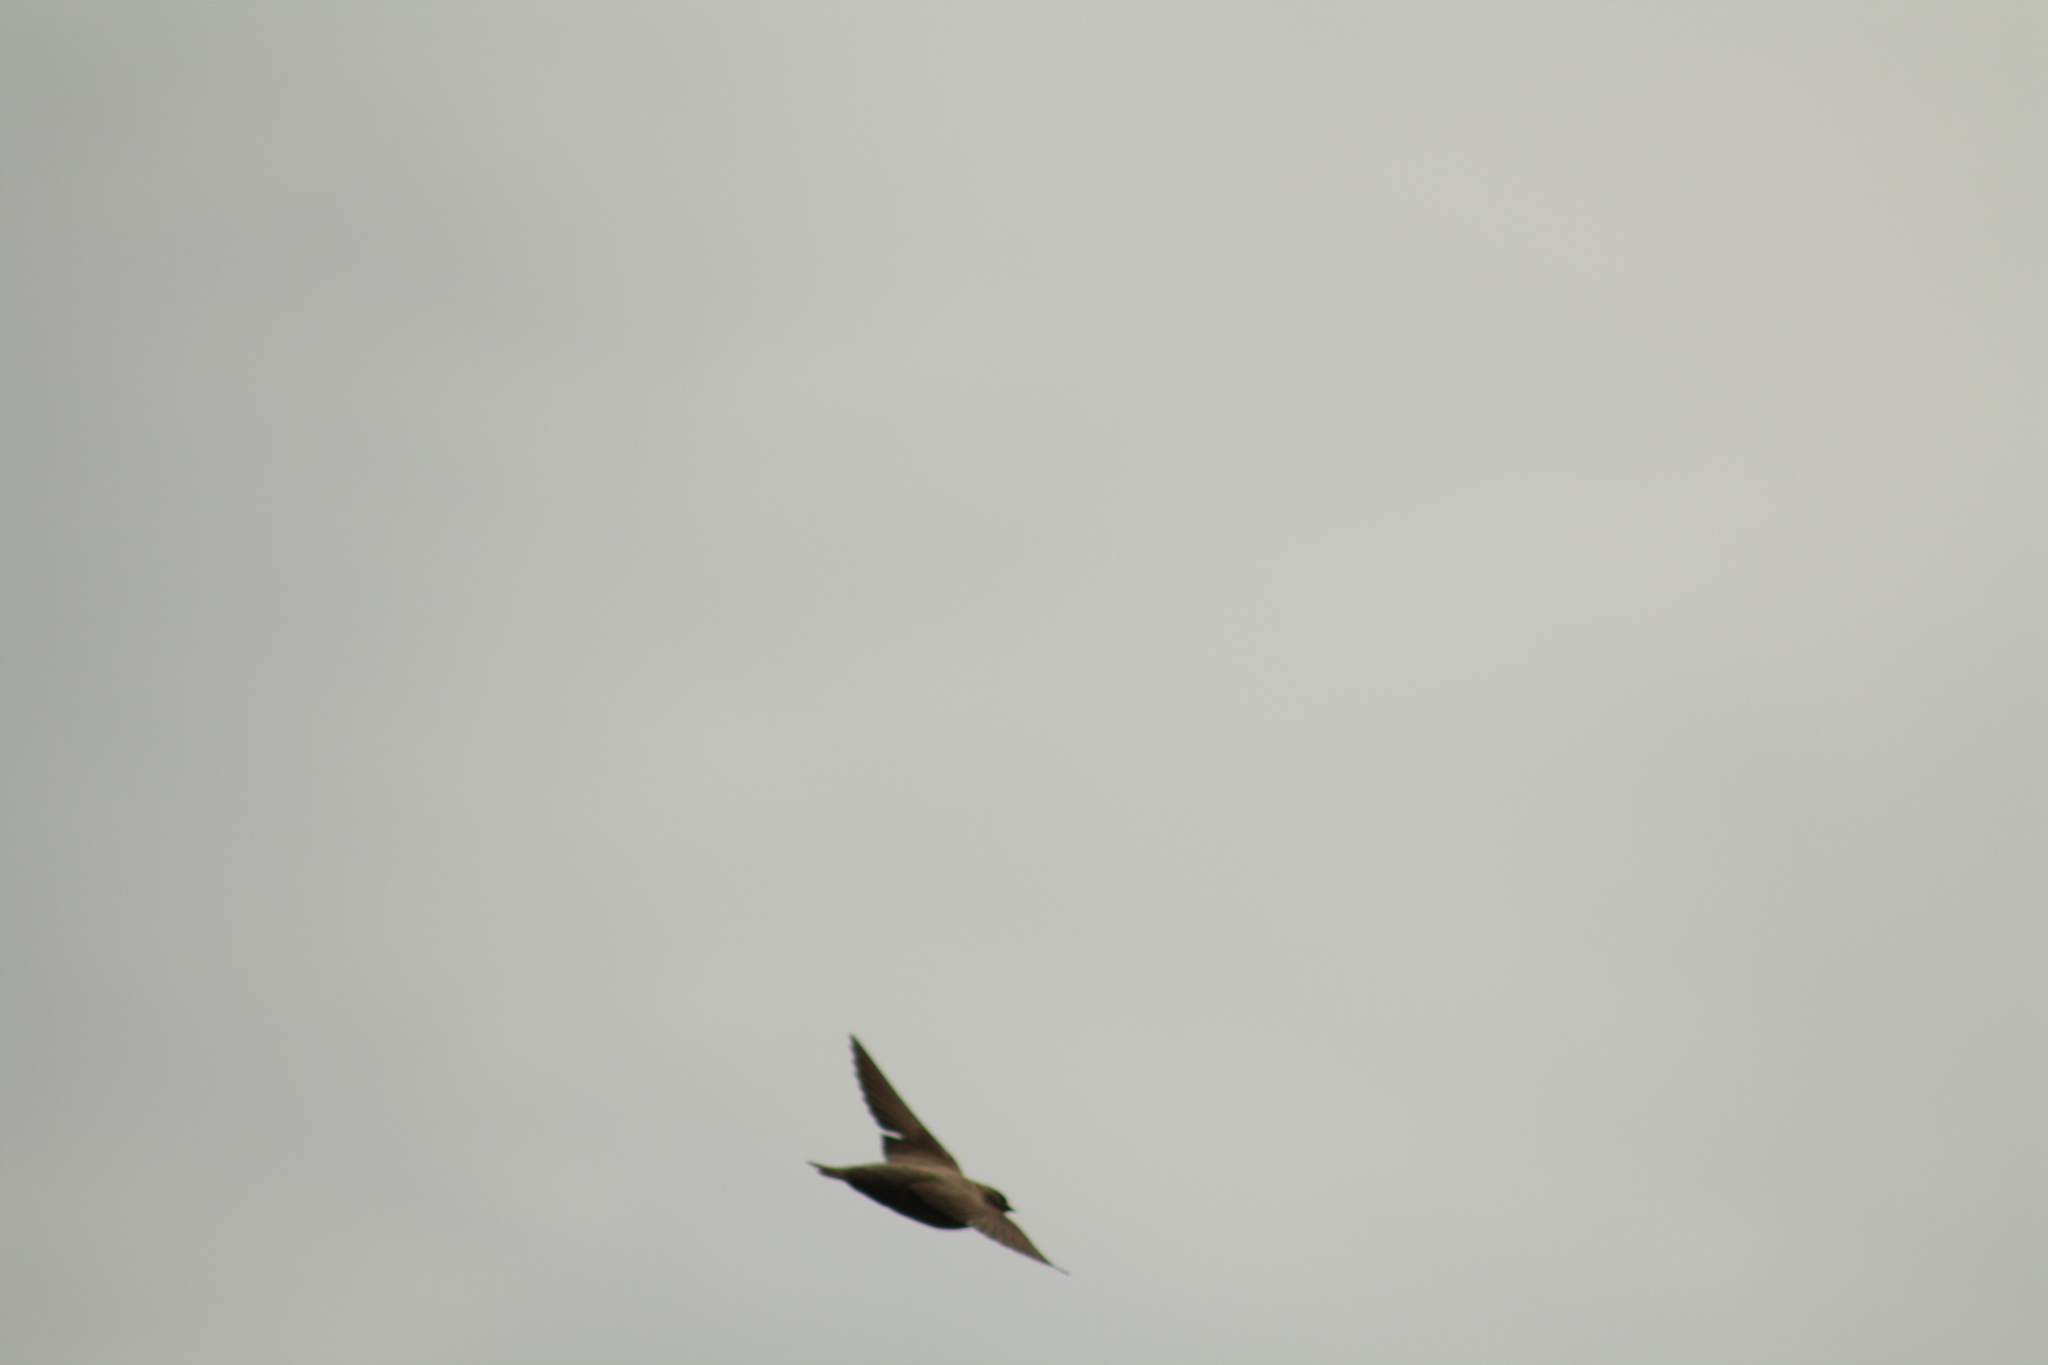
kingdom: Animalia
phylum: Chordata
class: Aves
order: Passeriformes
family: Hirundinidae
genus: Ptyonoprogne
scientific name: Ptyonoprogne rupestris
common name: Eurasian crag martin
